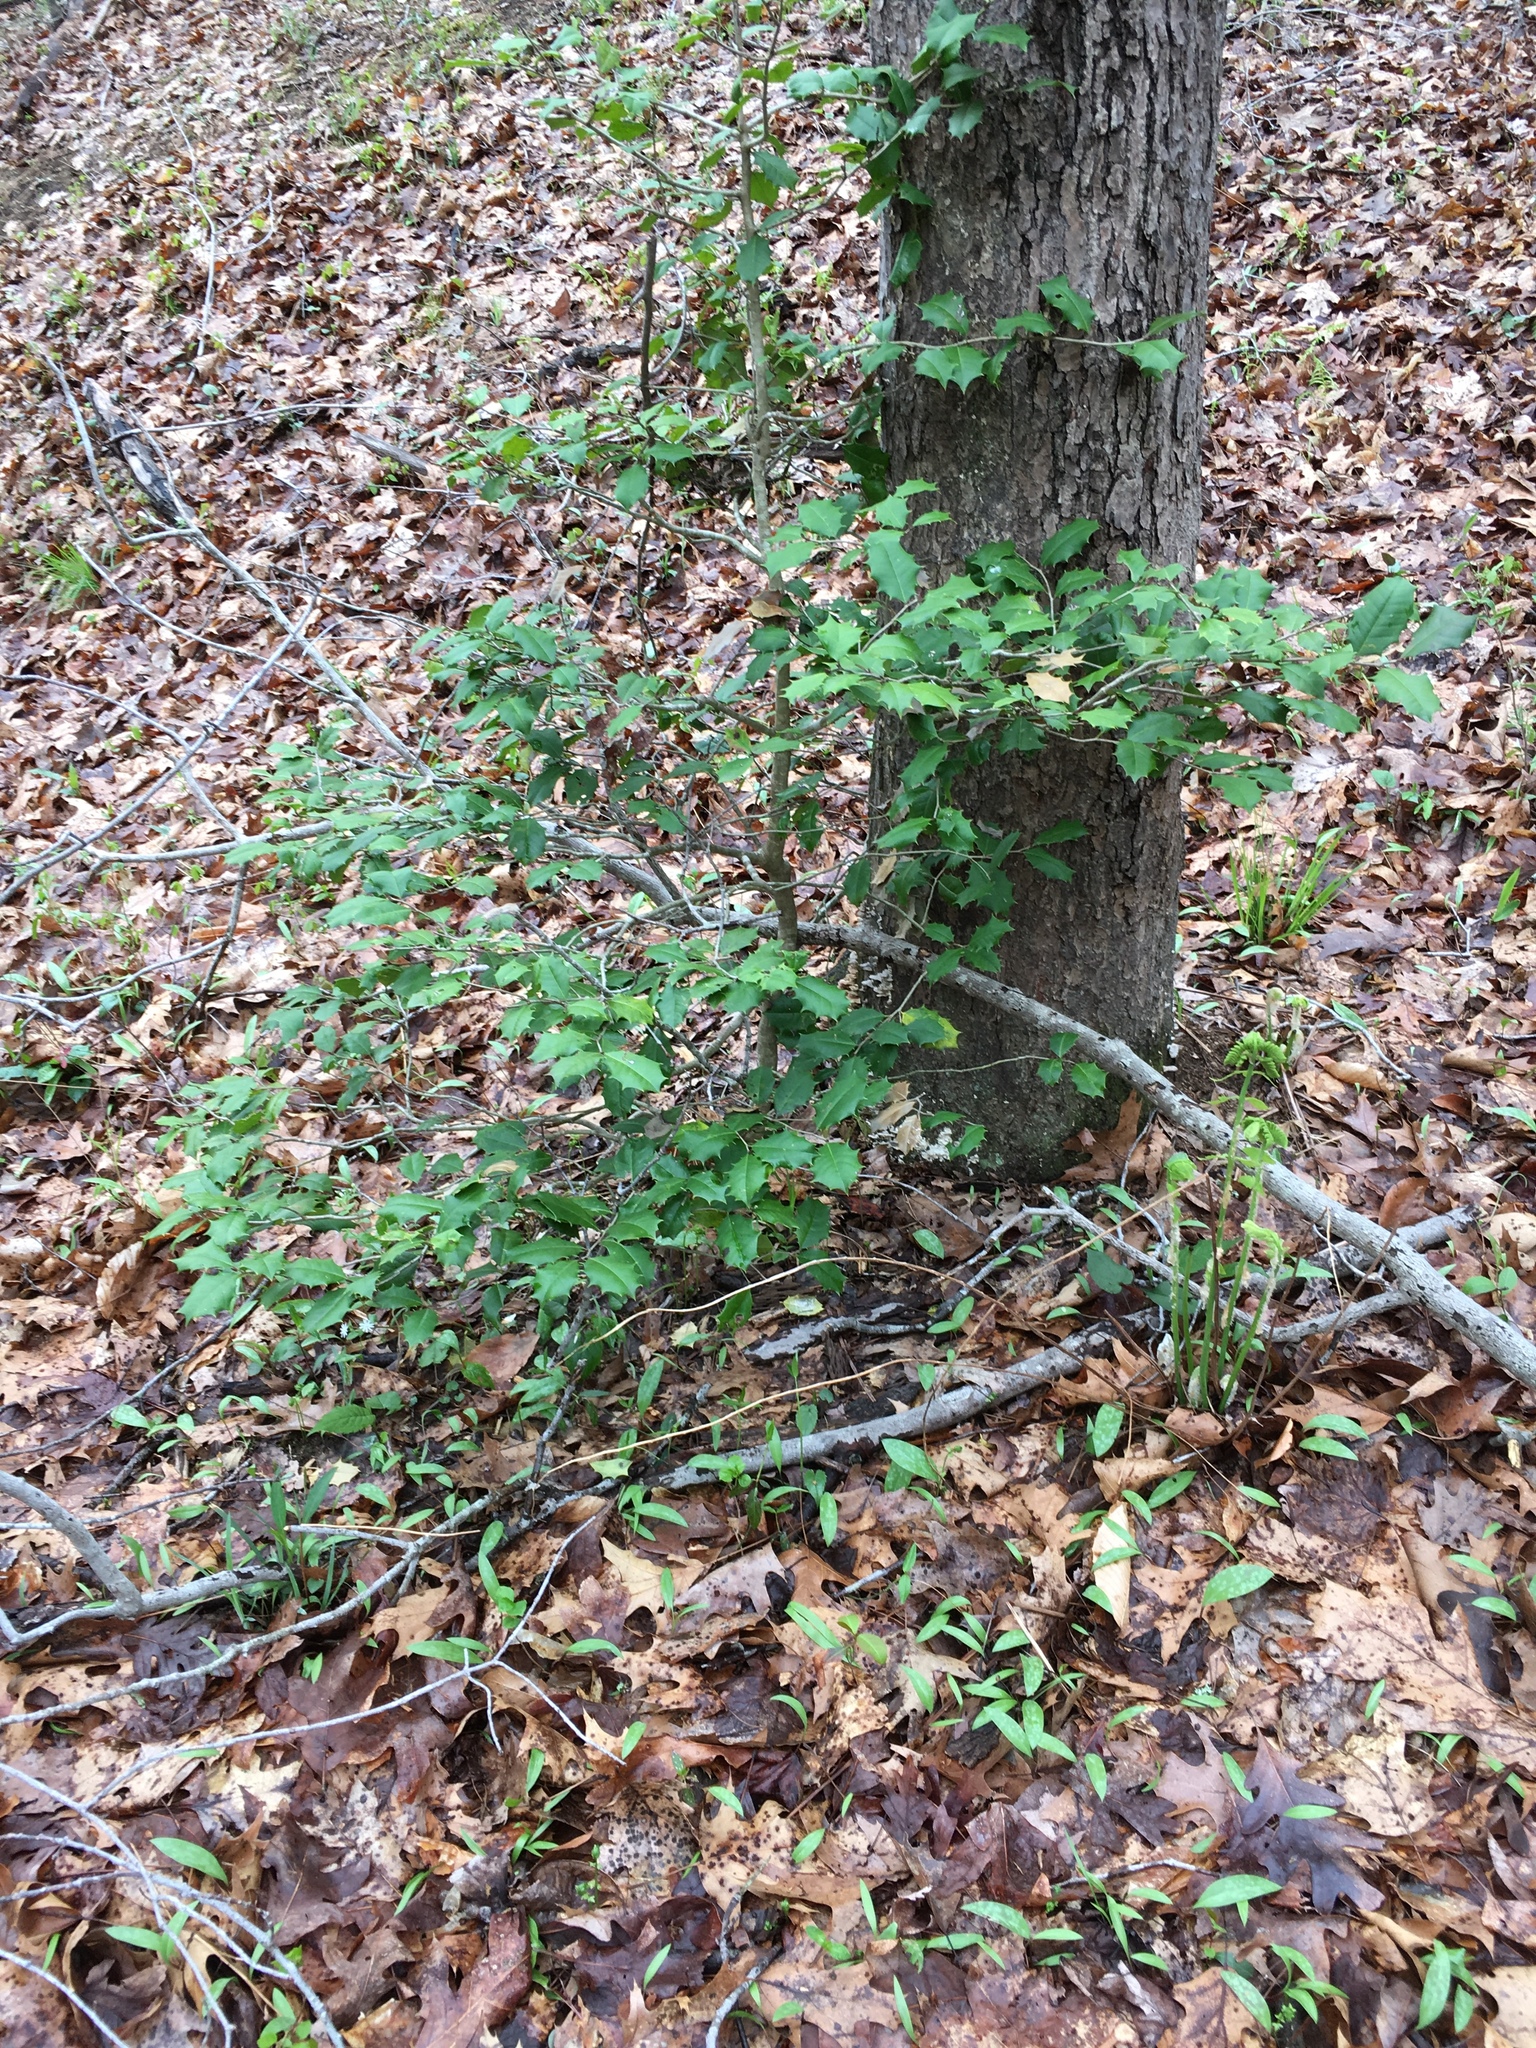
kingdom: Plantae
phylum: Tracheophyta
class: Magnoliopsida
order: Aquifoliales
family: Aquifoliaceae
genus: Ilex
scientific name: Ilex opaca
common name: American holly
